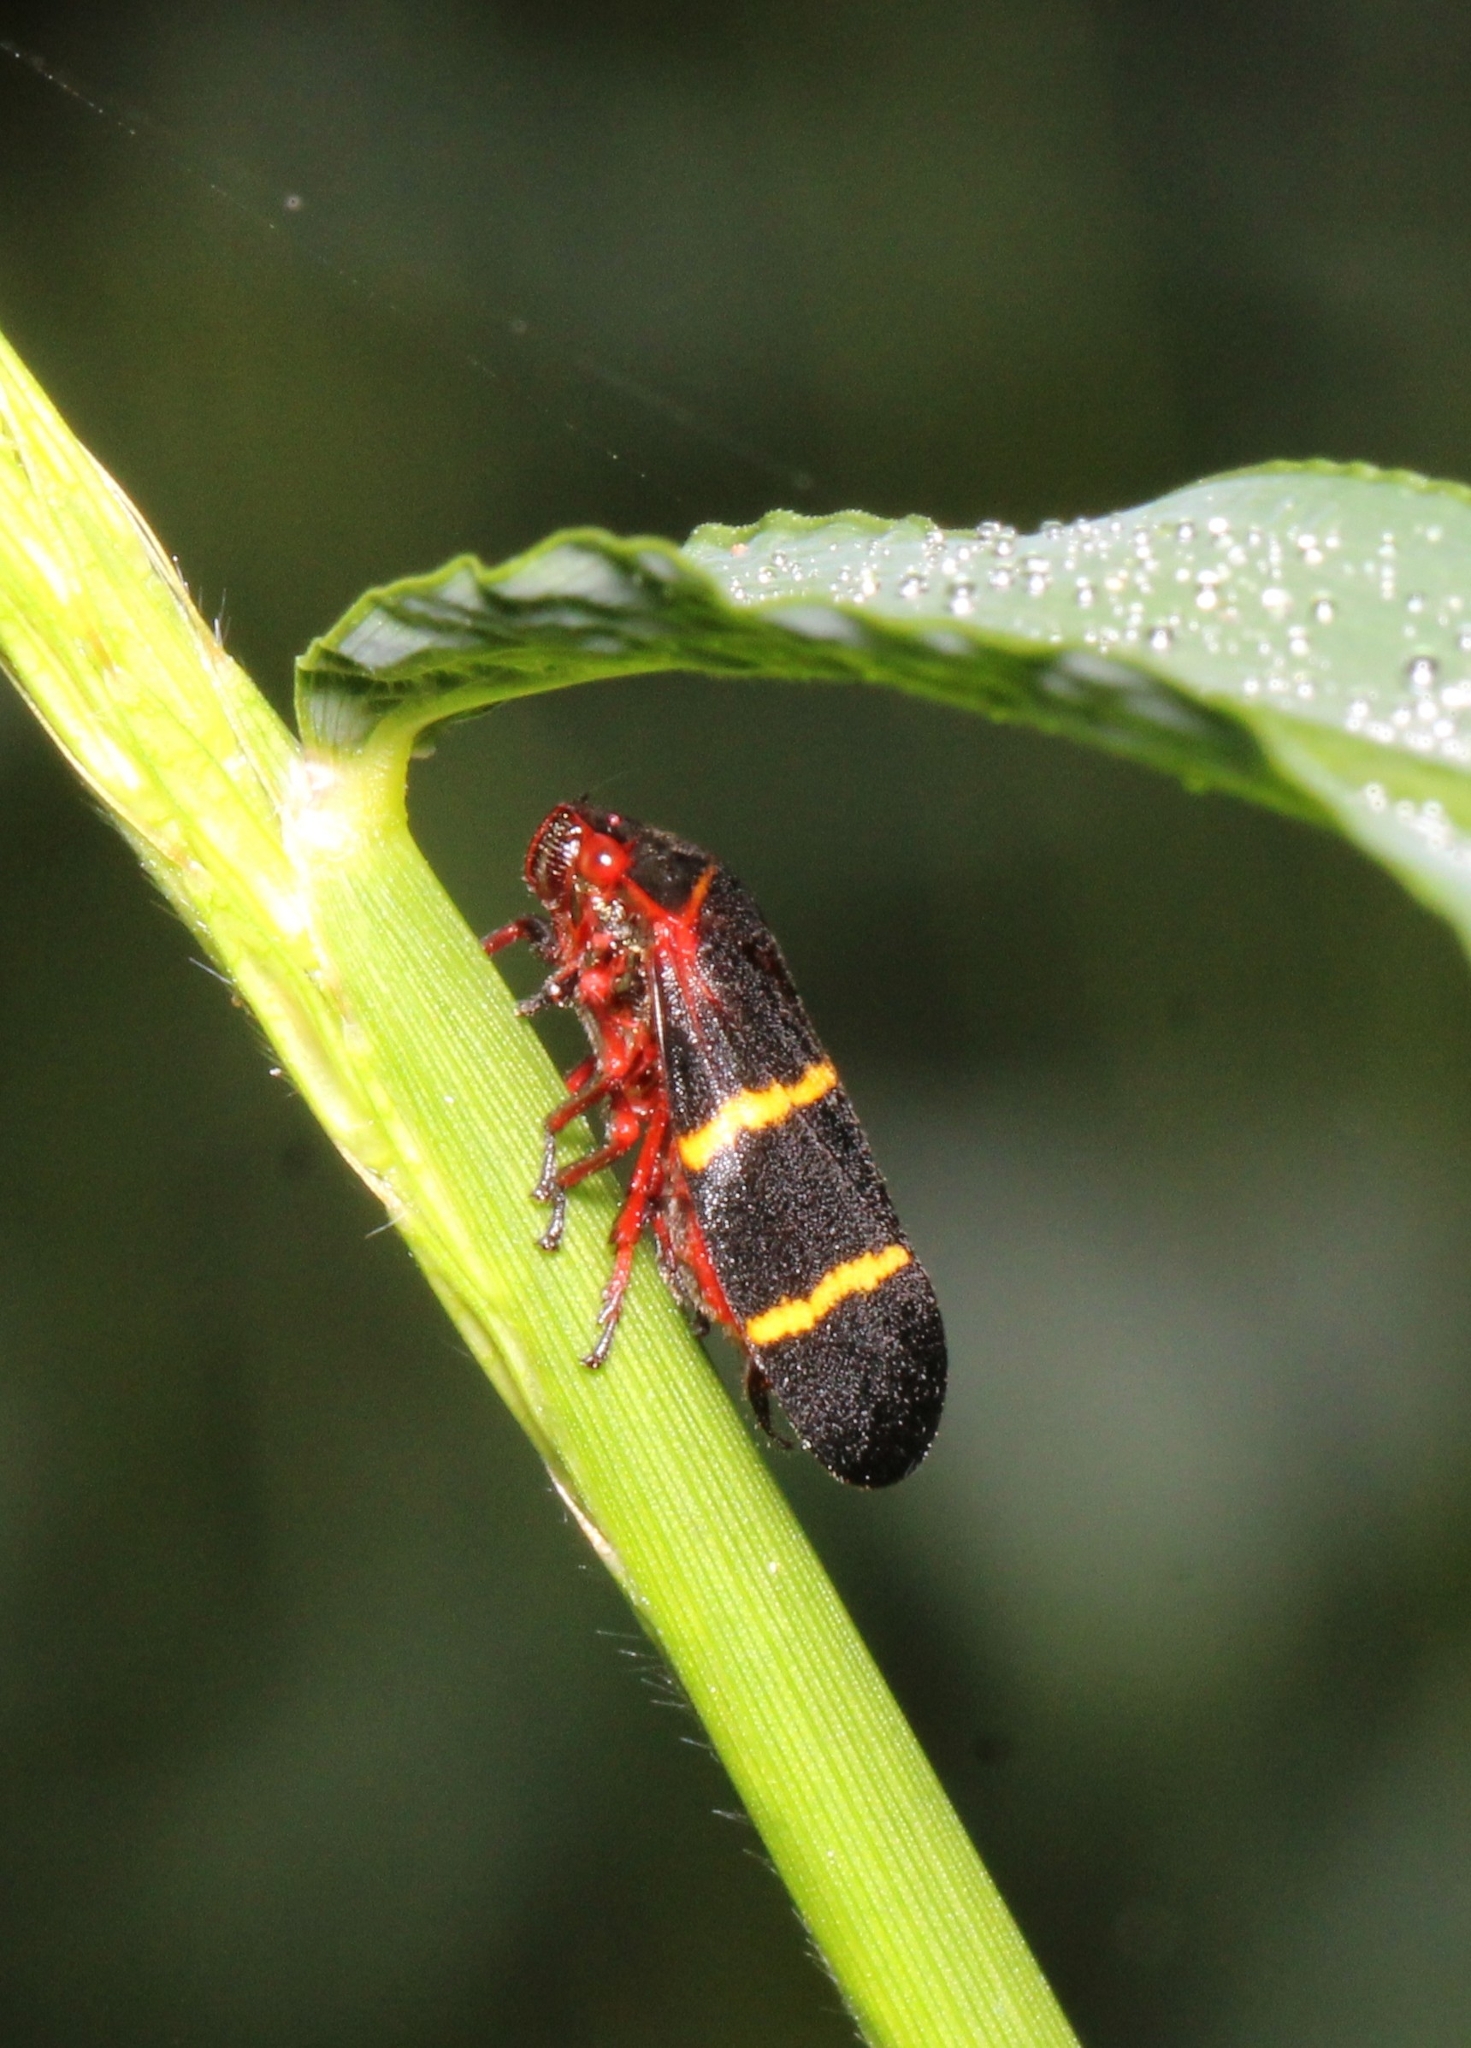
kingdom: Animalia
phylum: Arthropoda
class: Insecta
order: Hemiptera
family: Cercopidae
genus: Prosapia
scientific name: Prosapia bicincta
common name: Twolined spittlebug
